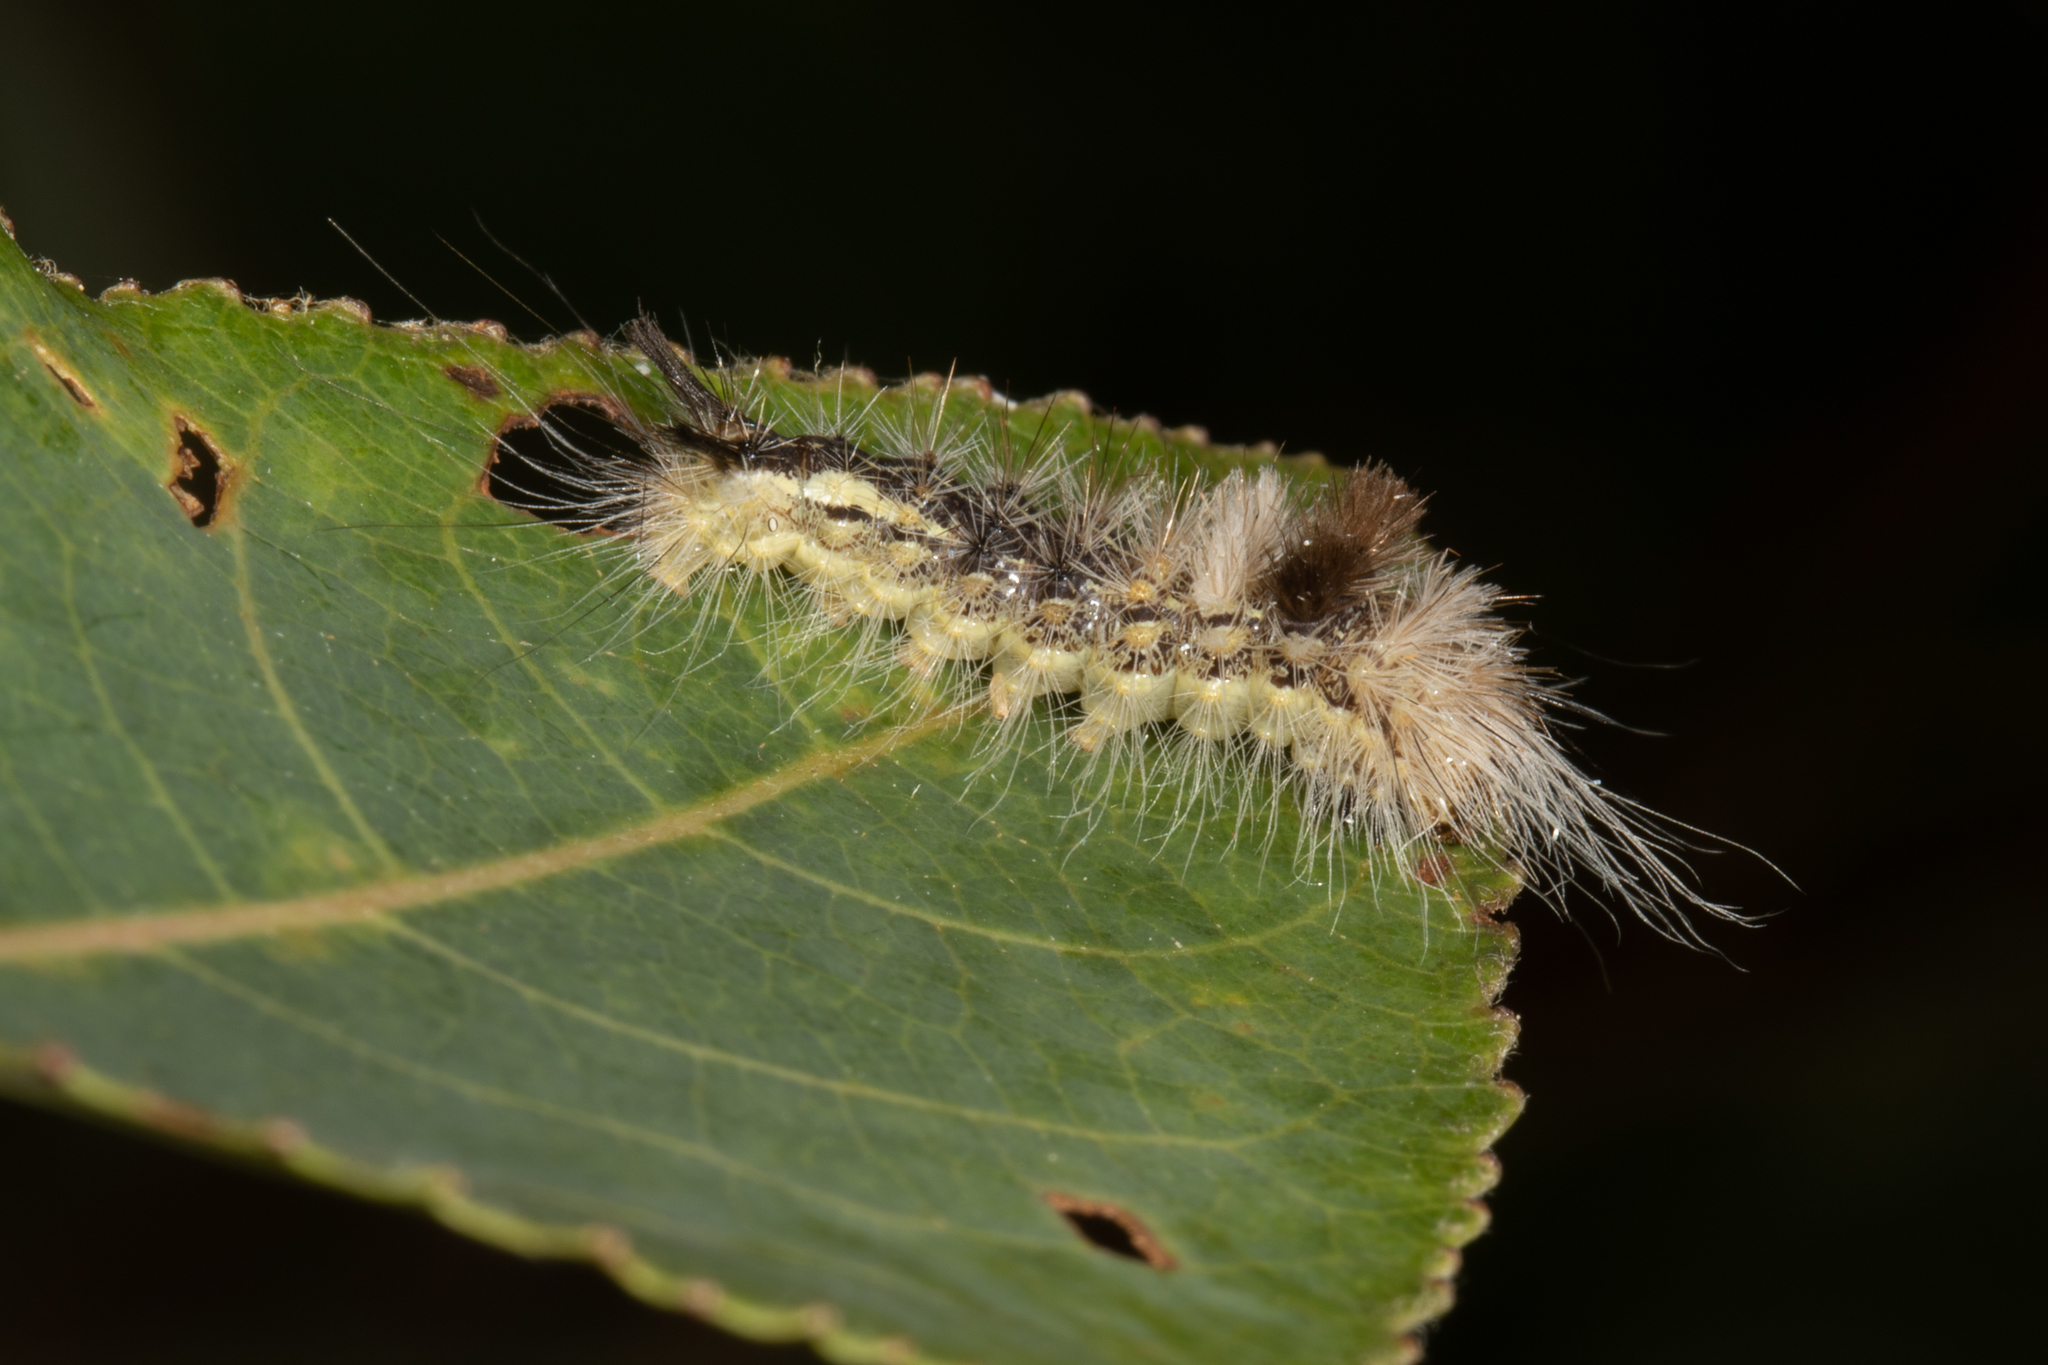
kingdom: Animalia
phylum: Arthropoda
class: Insecta
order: Lepidoptera
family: Noctuidae
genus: Acronicta
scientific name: Acronicta impleta
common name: Powdered dagger
